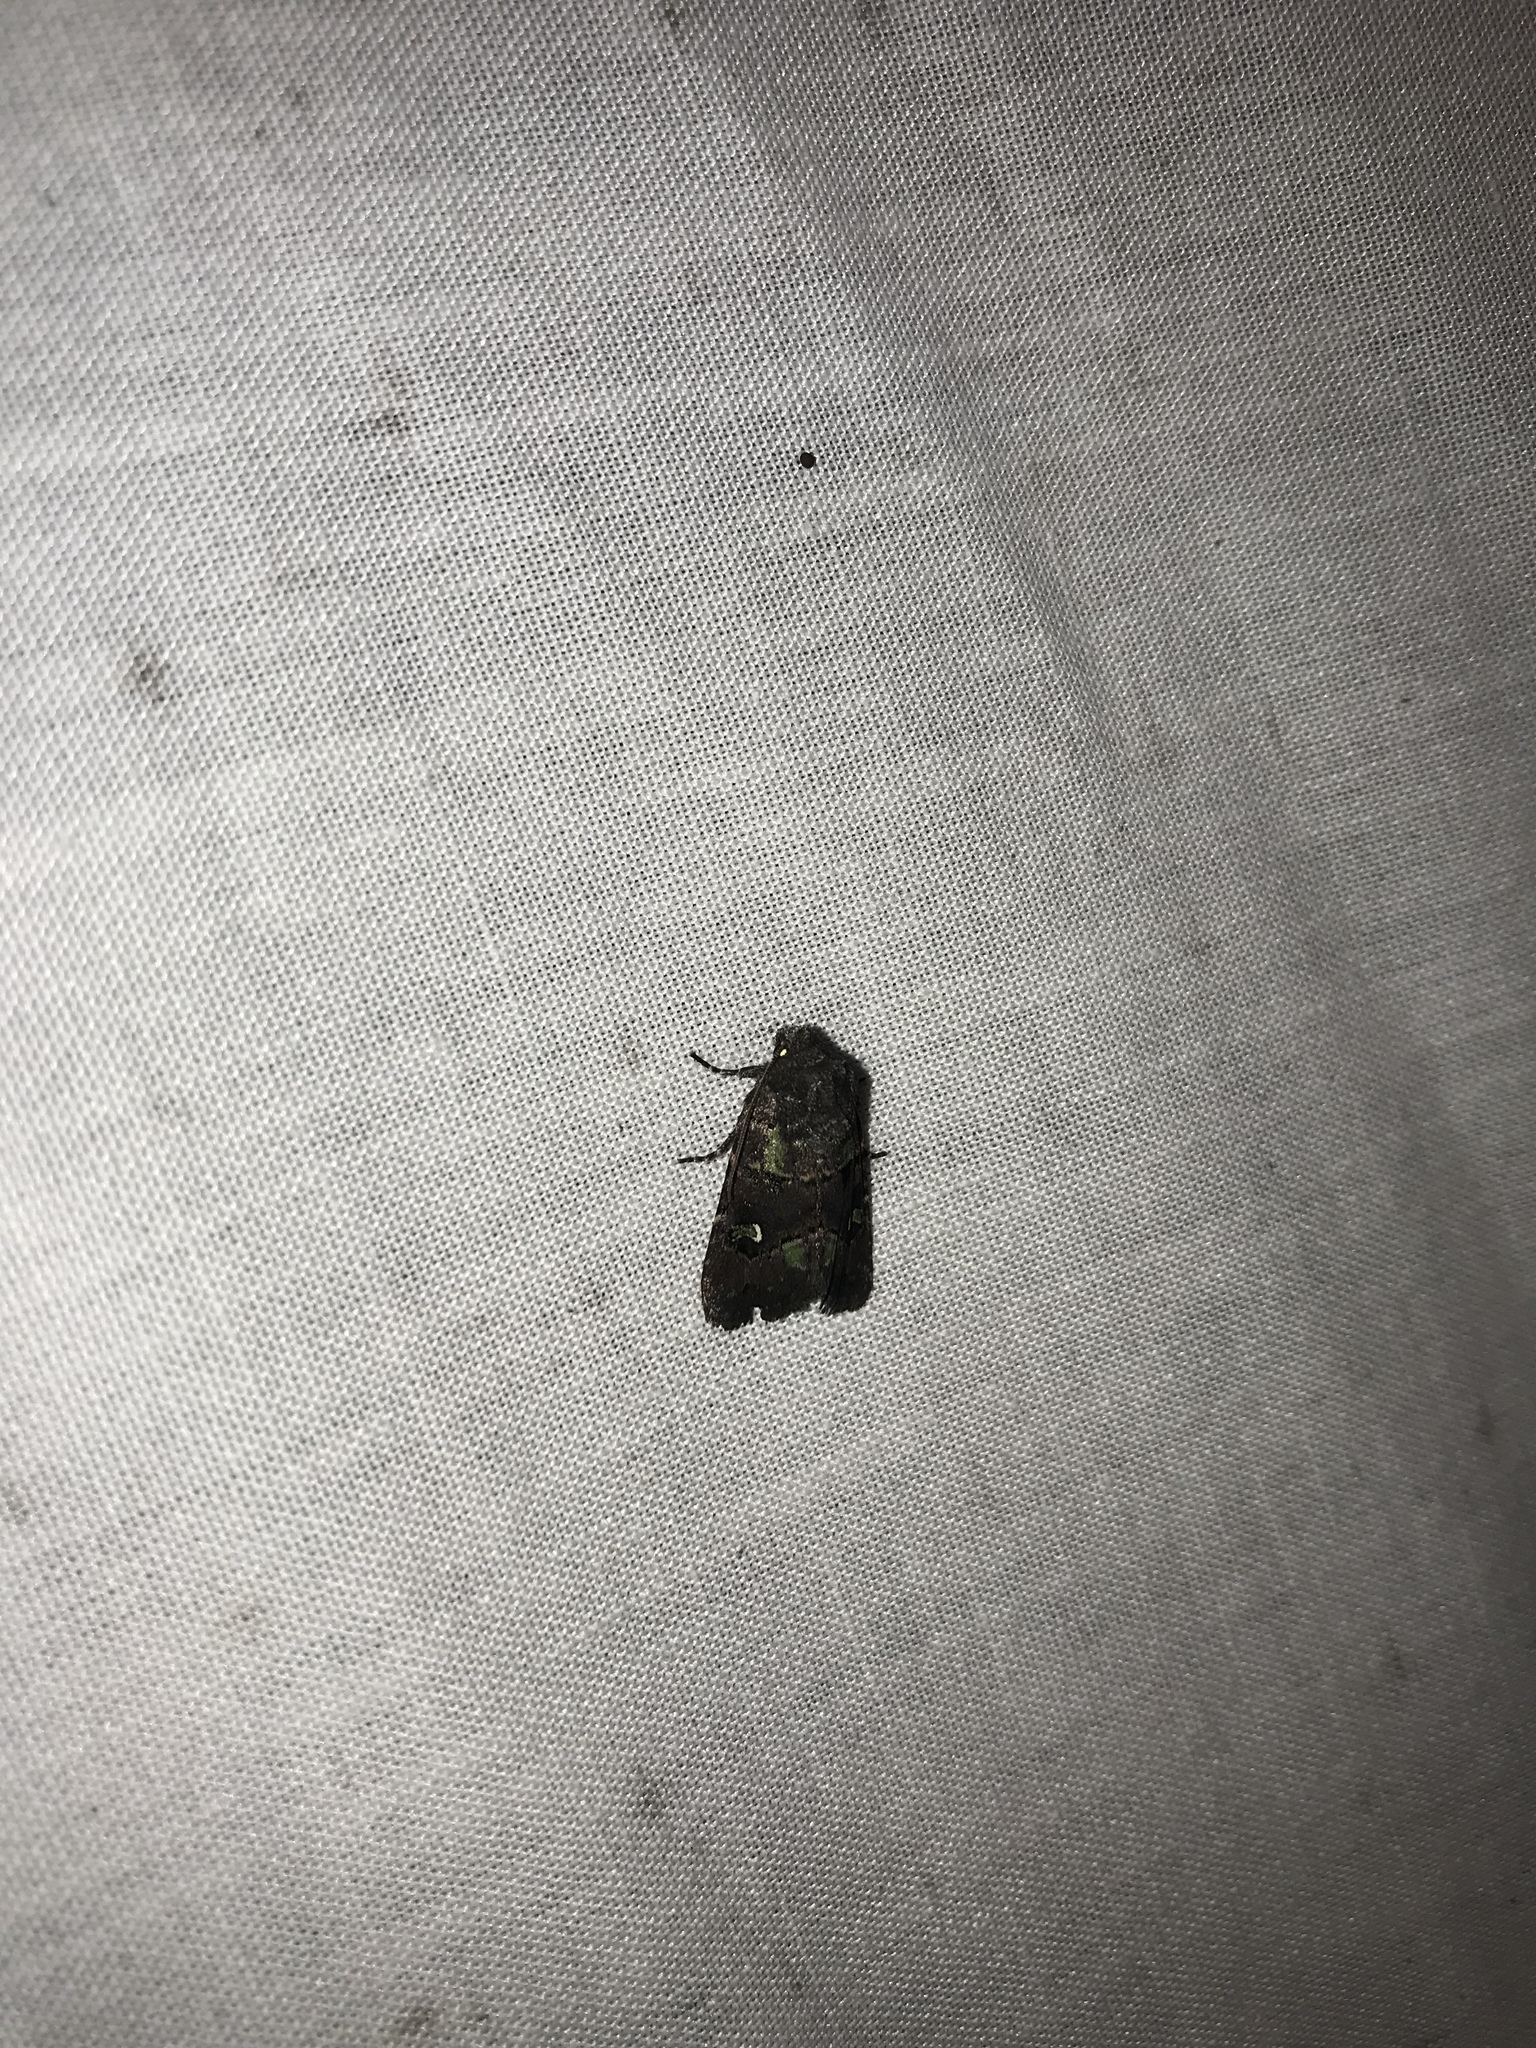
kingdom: Animalia
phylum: Arthropoda
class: Insecta
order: Lepidoptera
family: Noctuidae
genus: Lacinipolia
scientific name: Lacinipolia renigera
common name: Kidney-spotted minor
